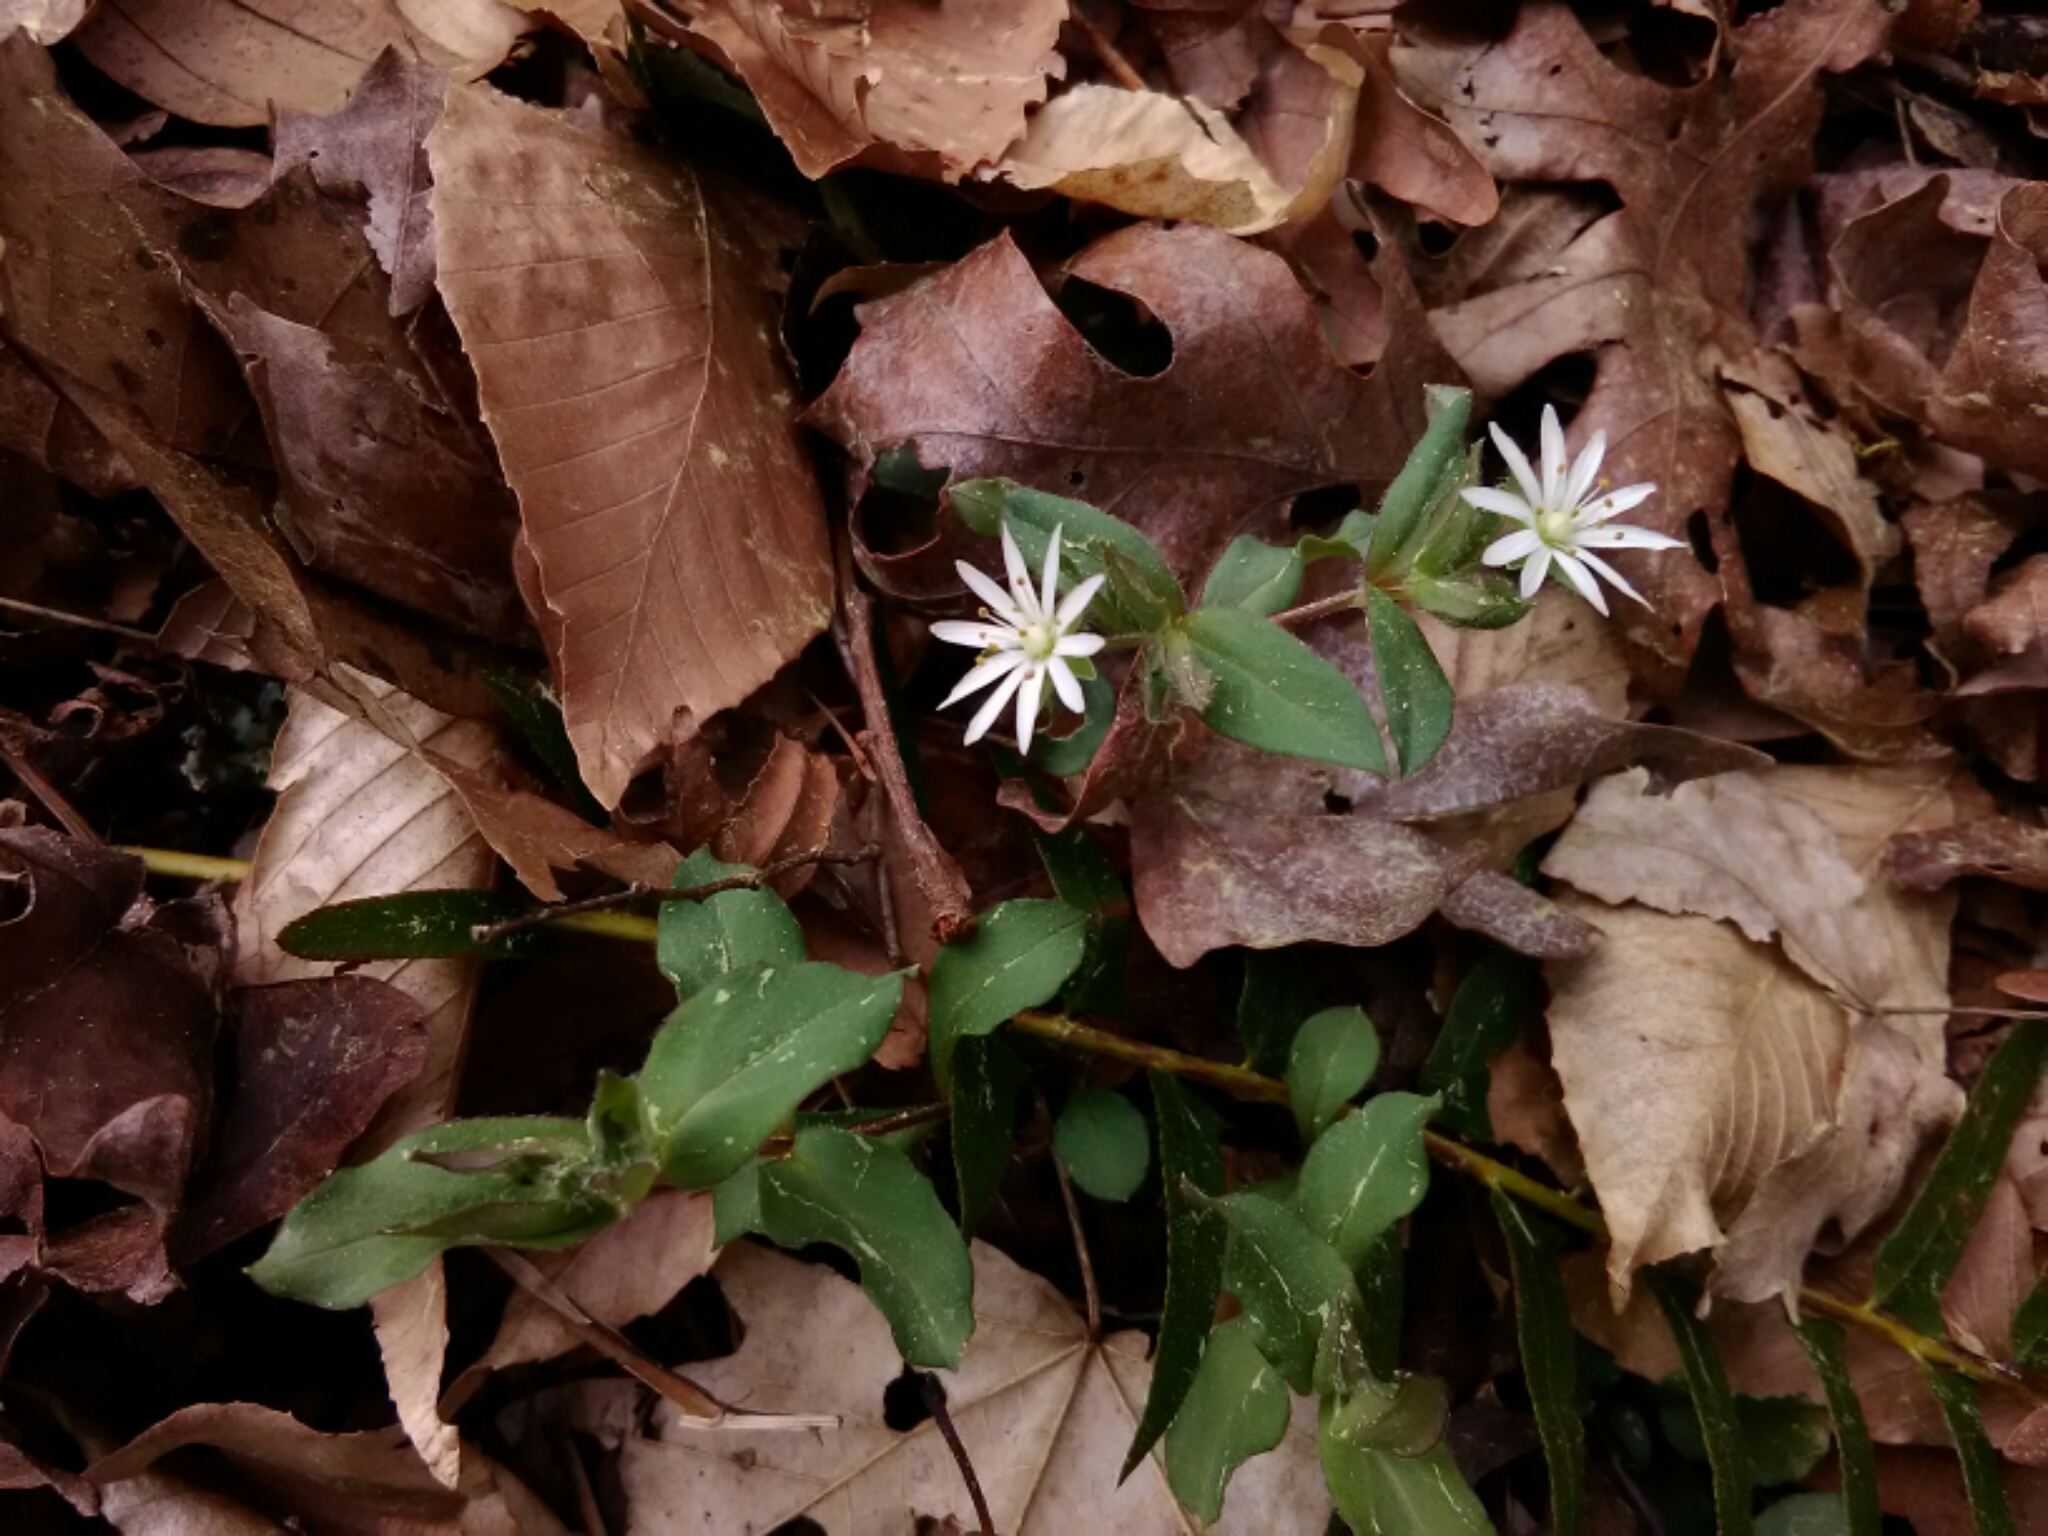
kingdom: Plantae
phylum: Tracheophyta
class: Magnoliopsida
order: Caryophyllales
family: Caryophyllaceae
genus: Stellaria
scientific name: Stellaria pubera
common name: Star chickweed
